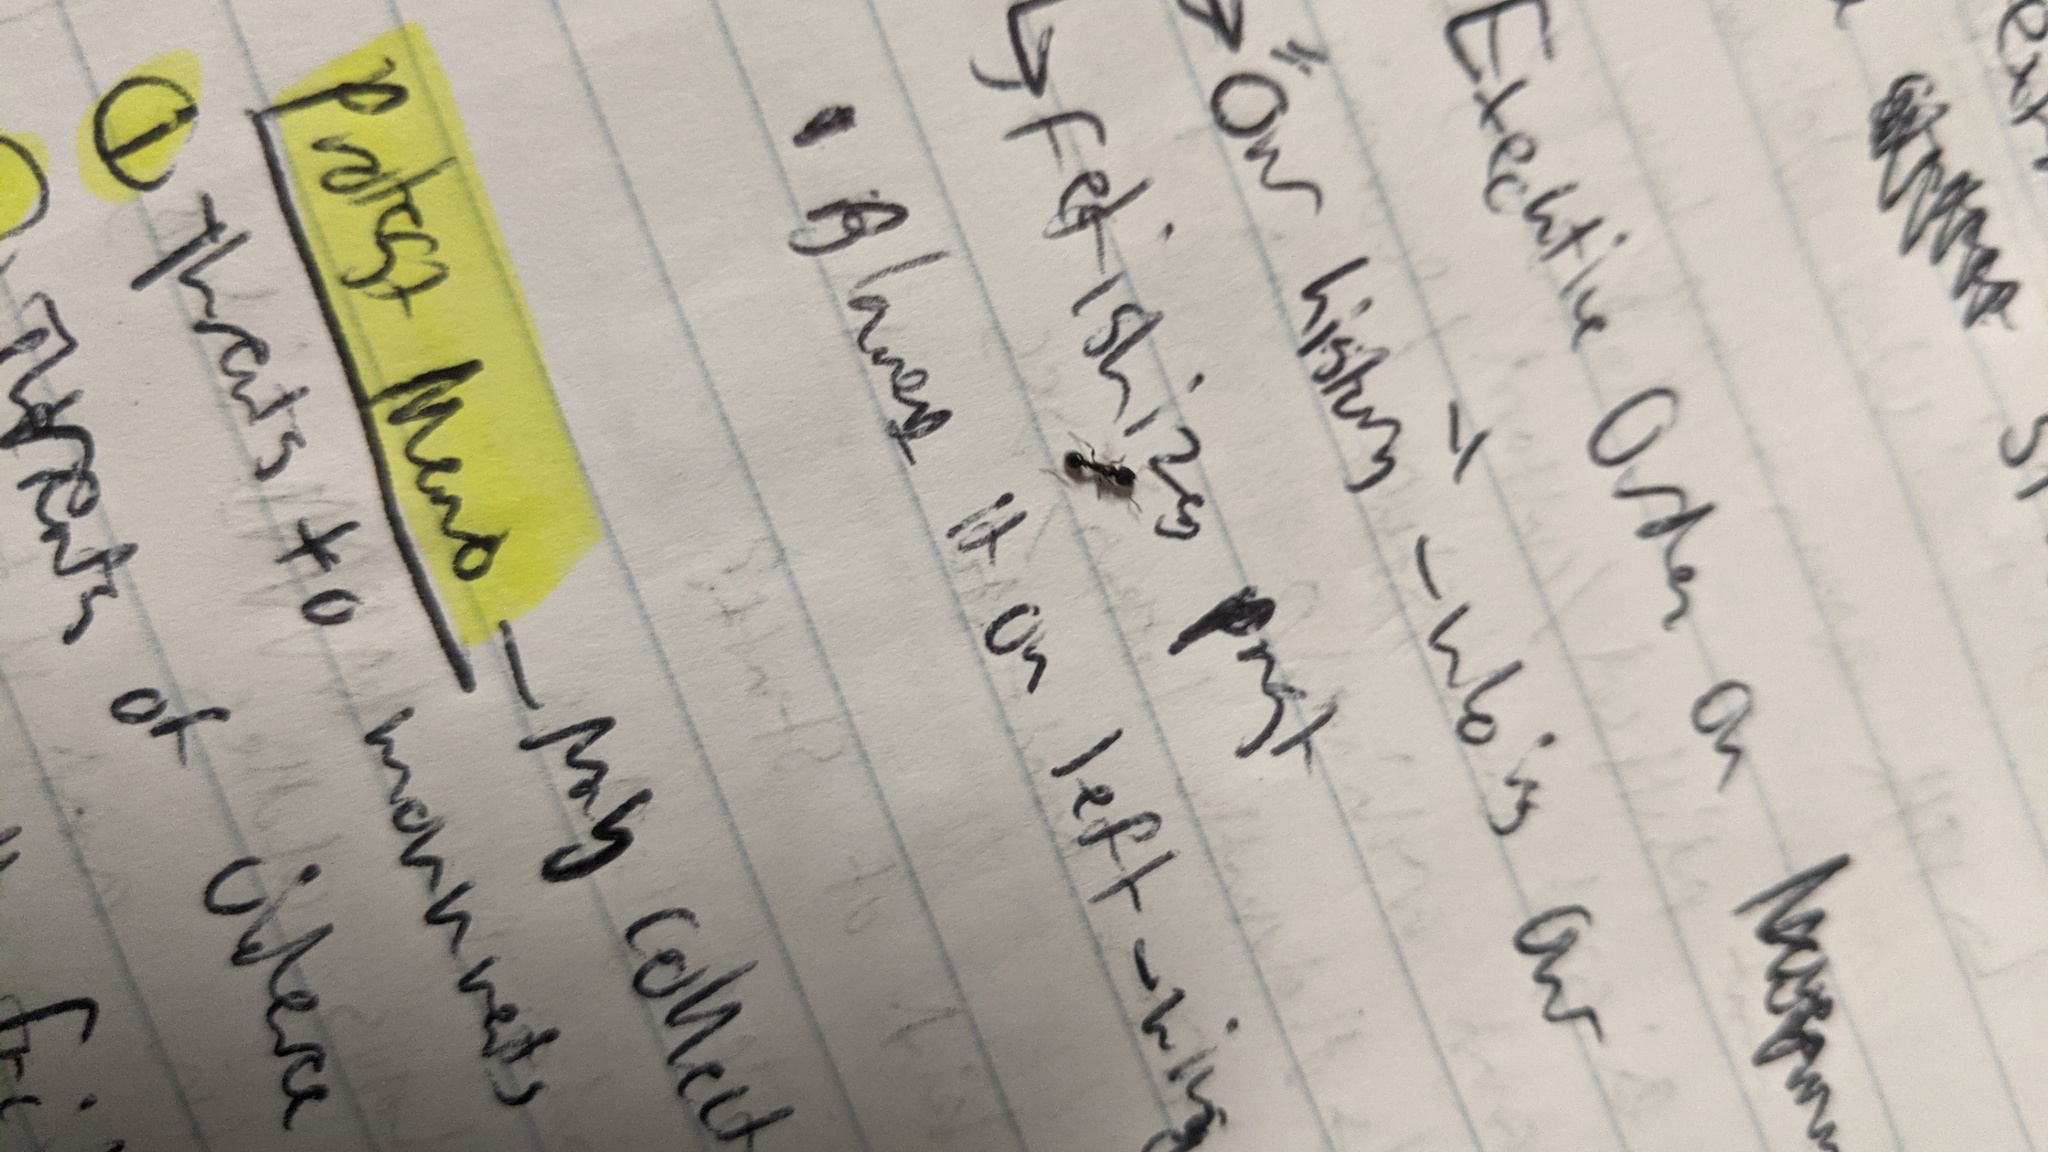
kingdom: Animalia
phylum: Arthropoda
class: Insecta
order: Hymenoptera
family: Formicidae
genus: Tetramorium
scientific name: Tetramorium immigrans
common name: Pavement ant
